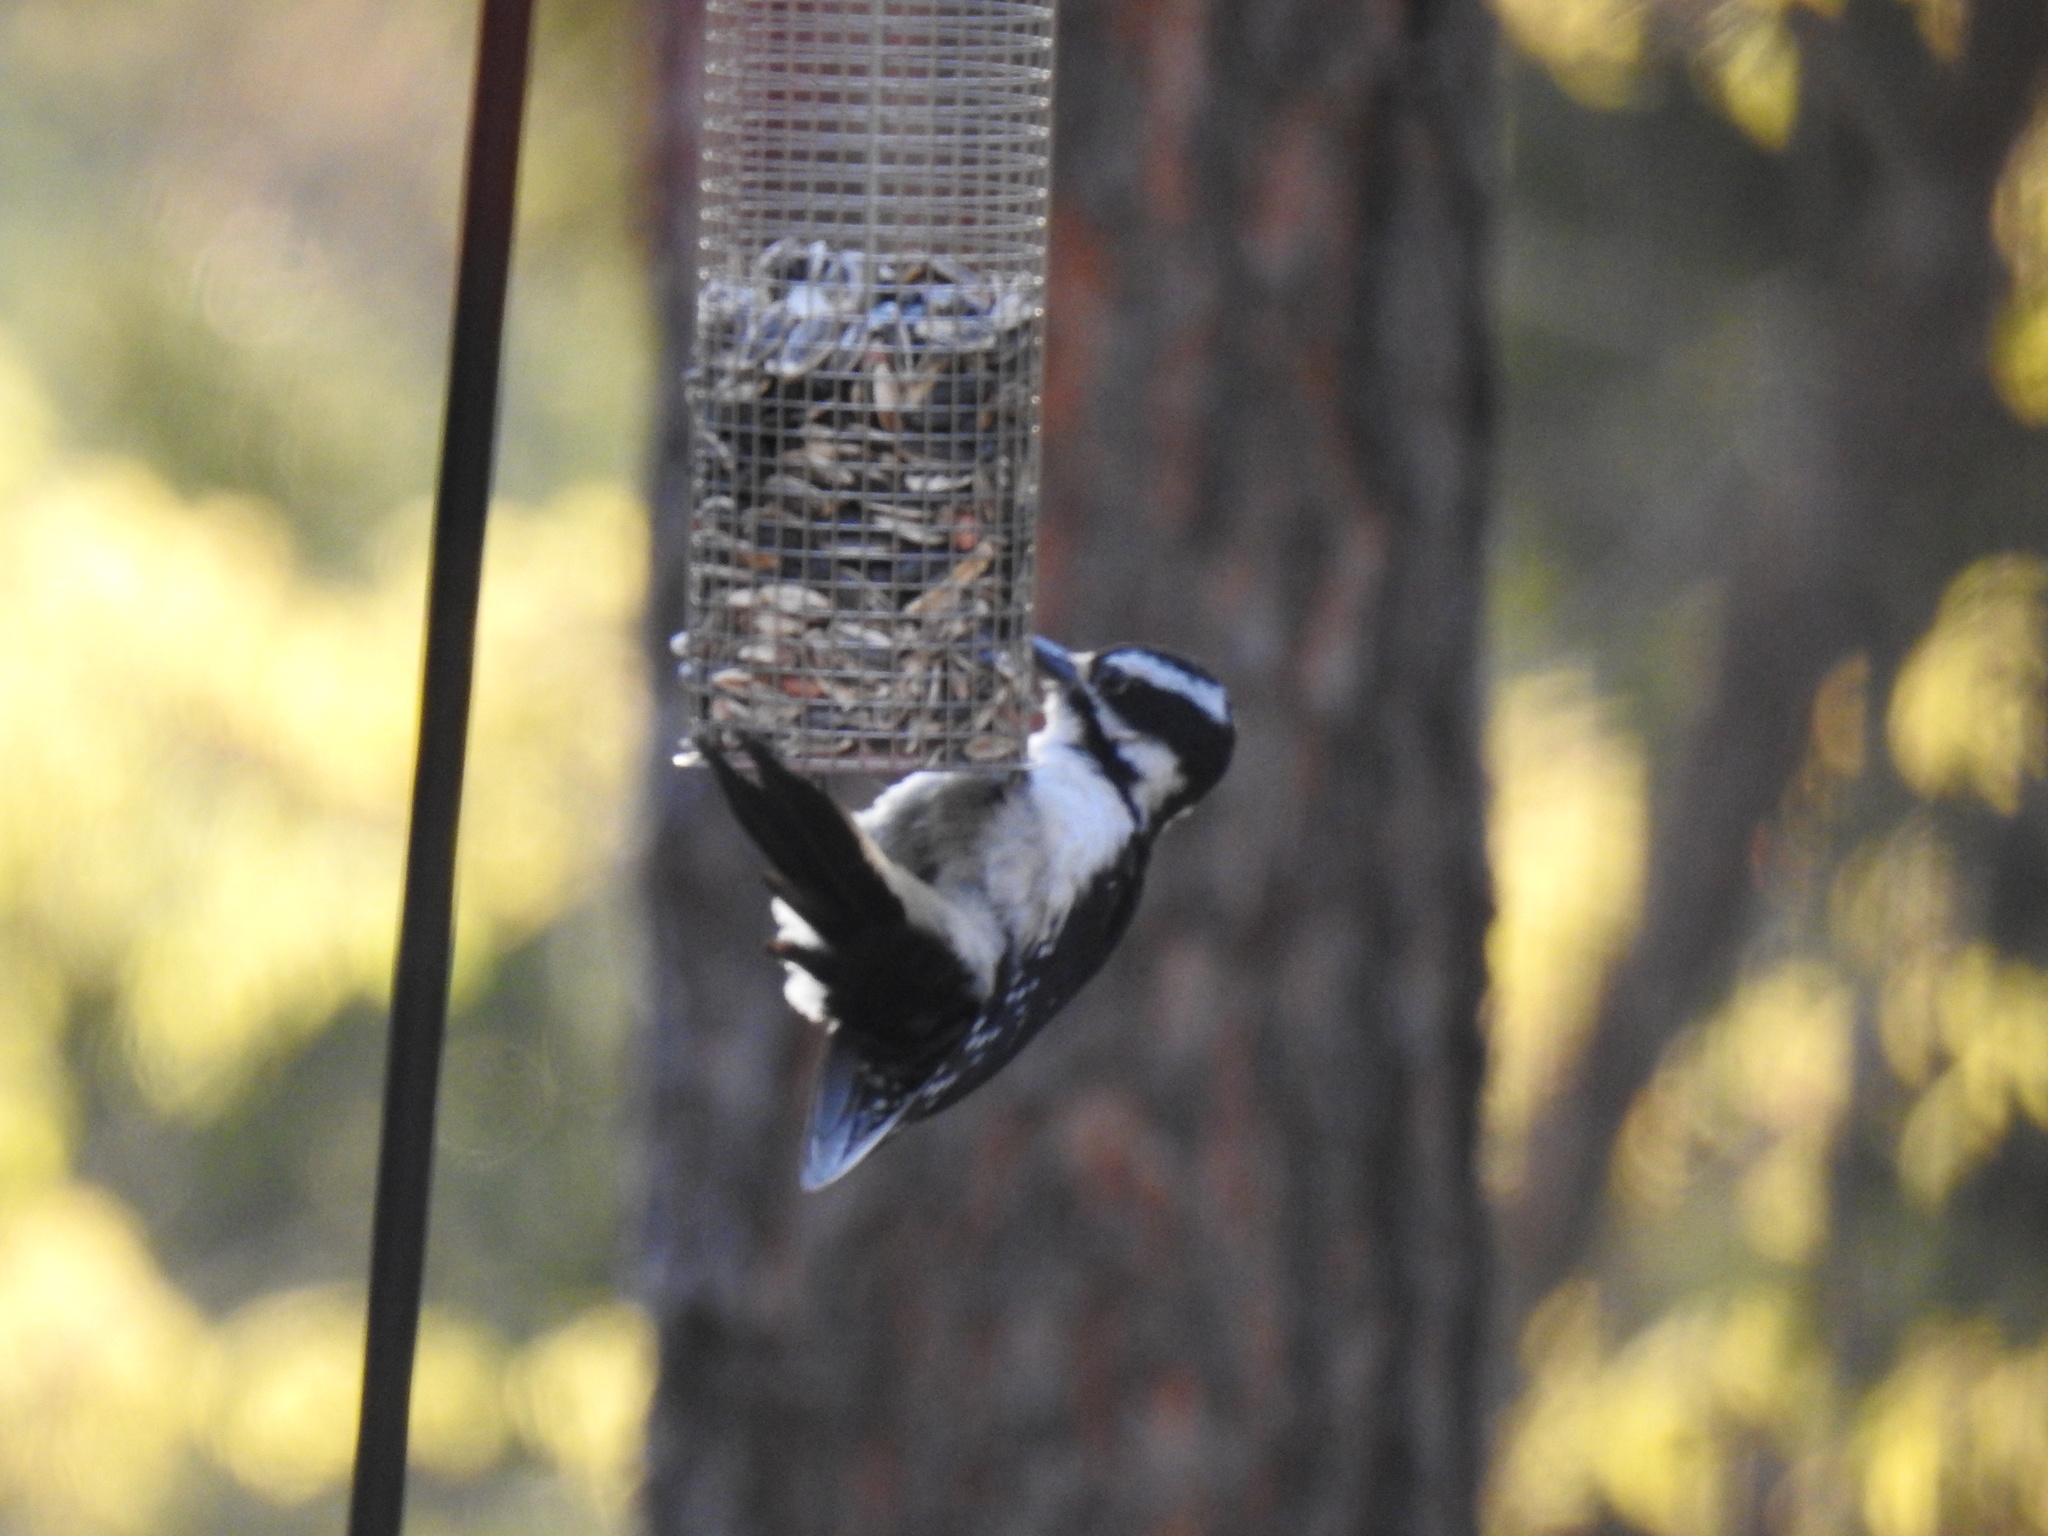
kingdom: Animalia
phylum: Chordata
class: Aves
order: Piciformes
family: Picidae
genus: Leuconotopicus
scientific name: Leuconotopicus villosus
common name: Hairy woodpecker
